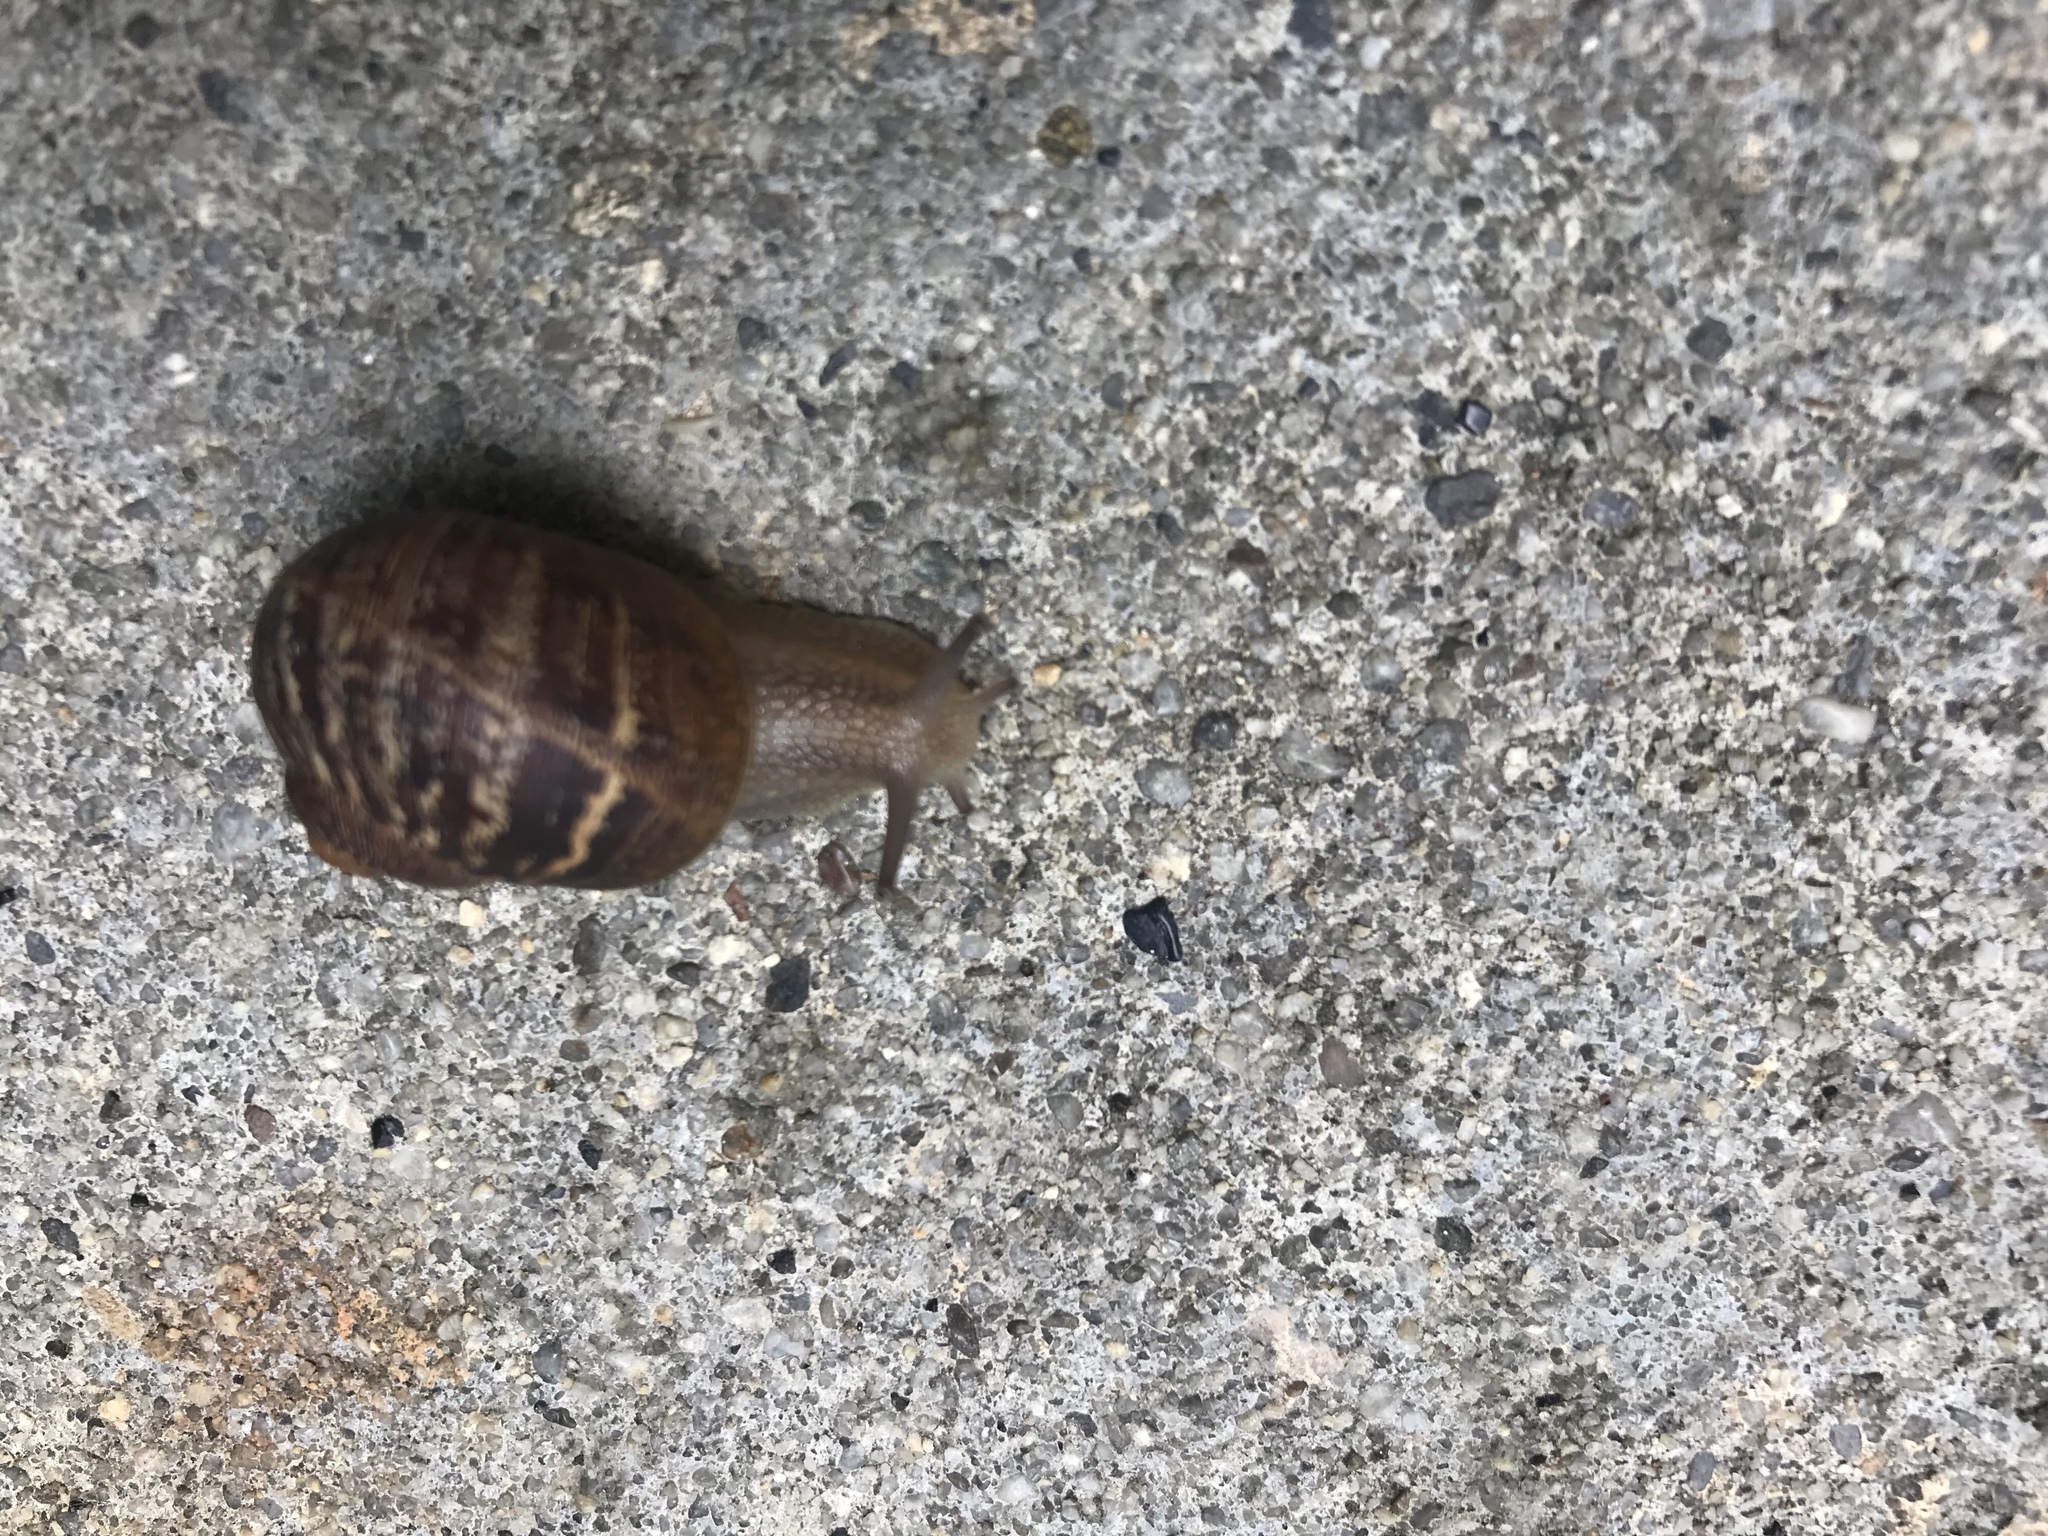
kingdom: Animalia
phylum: Mollusca
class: Gastropoda
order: Stylommatophora
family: Helicidae
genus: Cornu
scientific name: Cornu aspersum
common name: Brown garden snail
